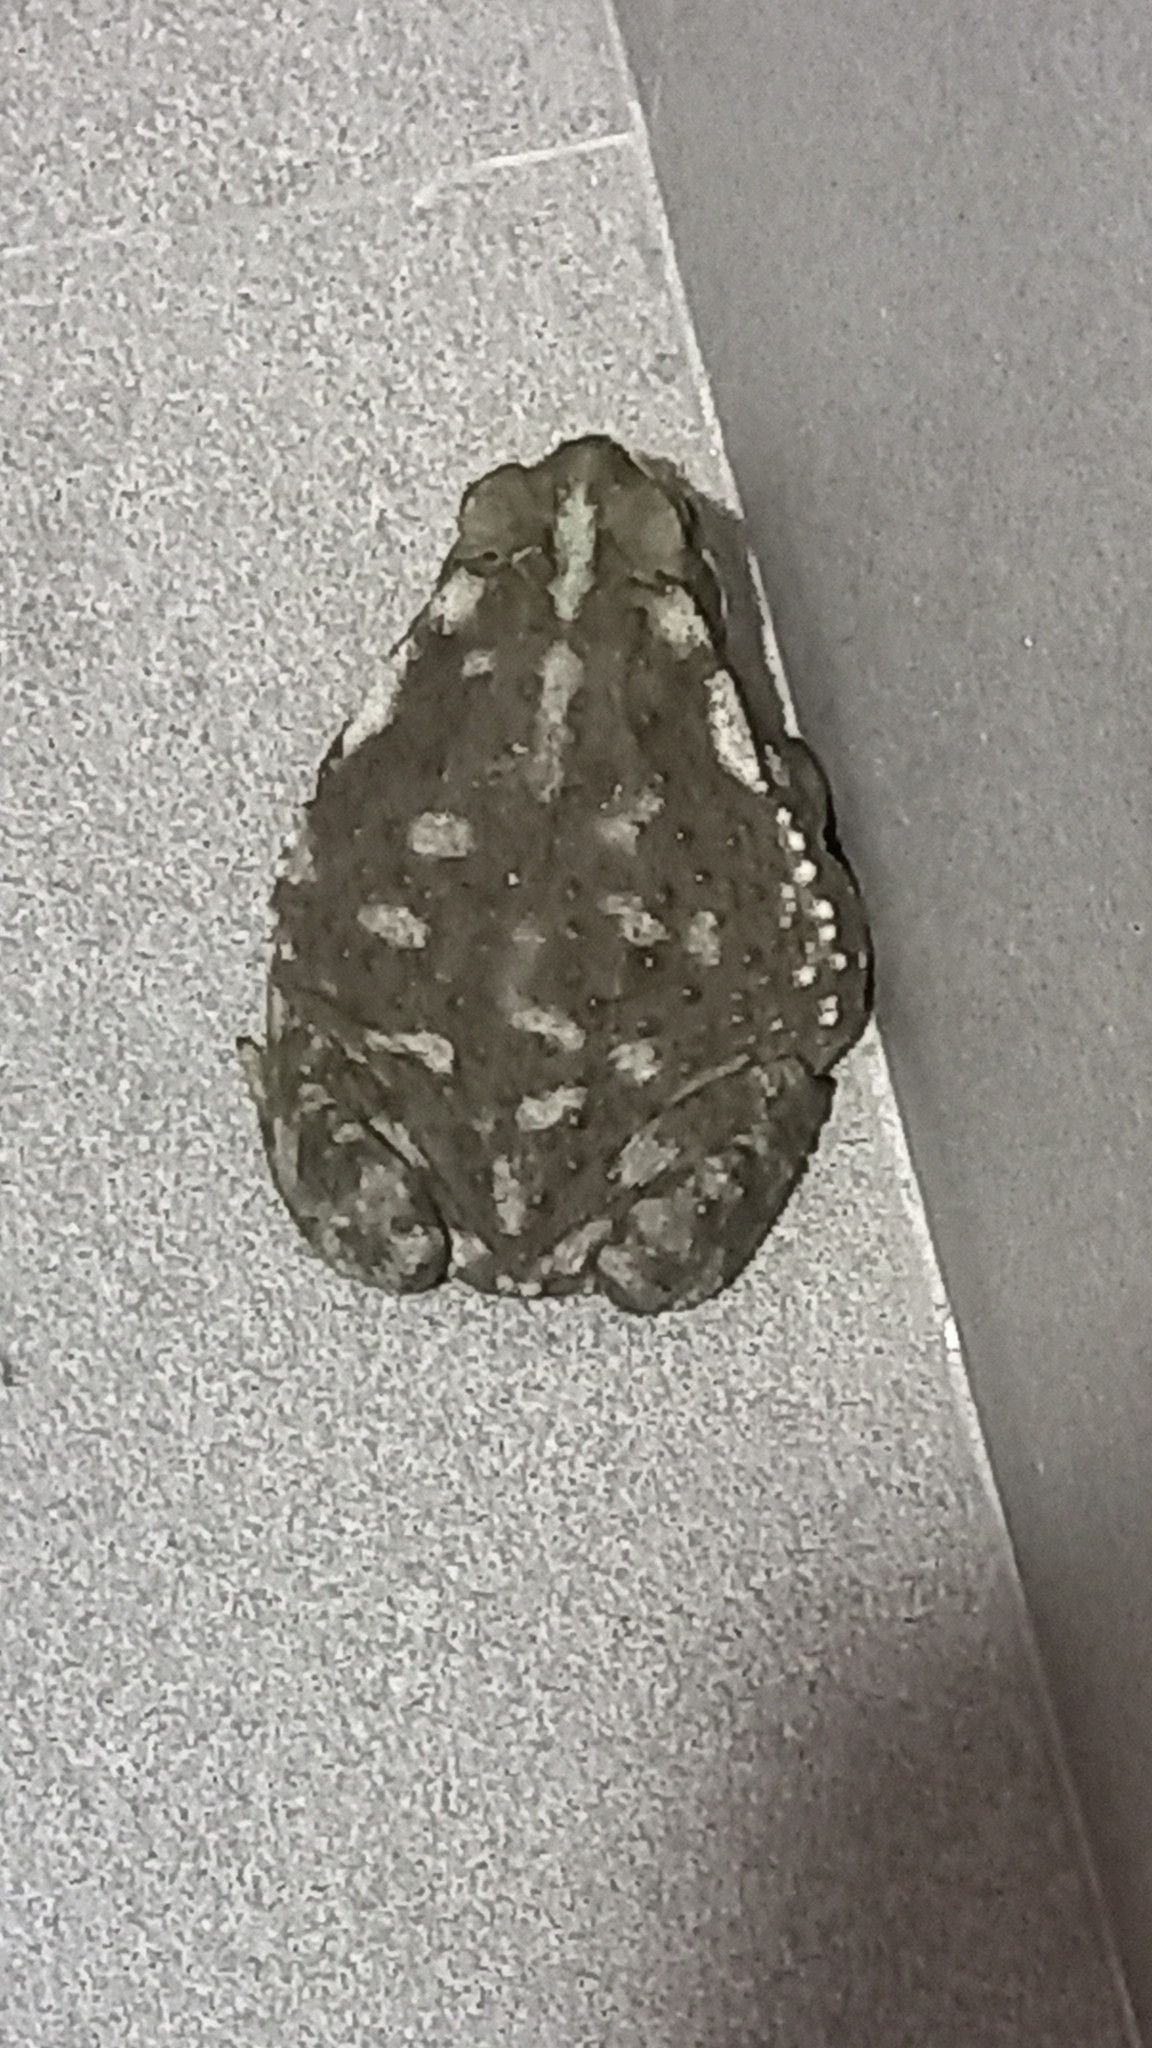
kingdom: Animalia
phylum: Chordata
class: Amphibia
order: Anura
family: Bufonidae
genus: Rhinella
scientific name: Rhinella arenarum
